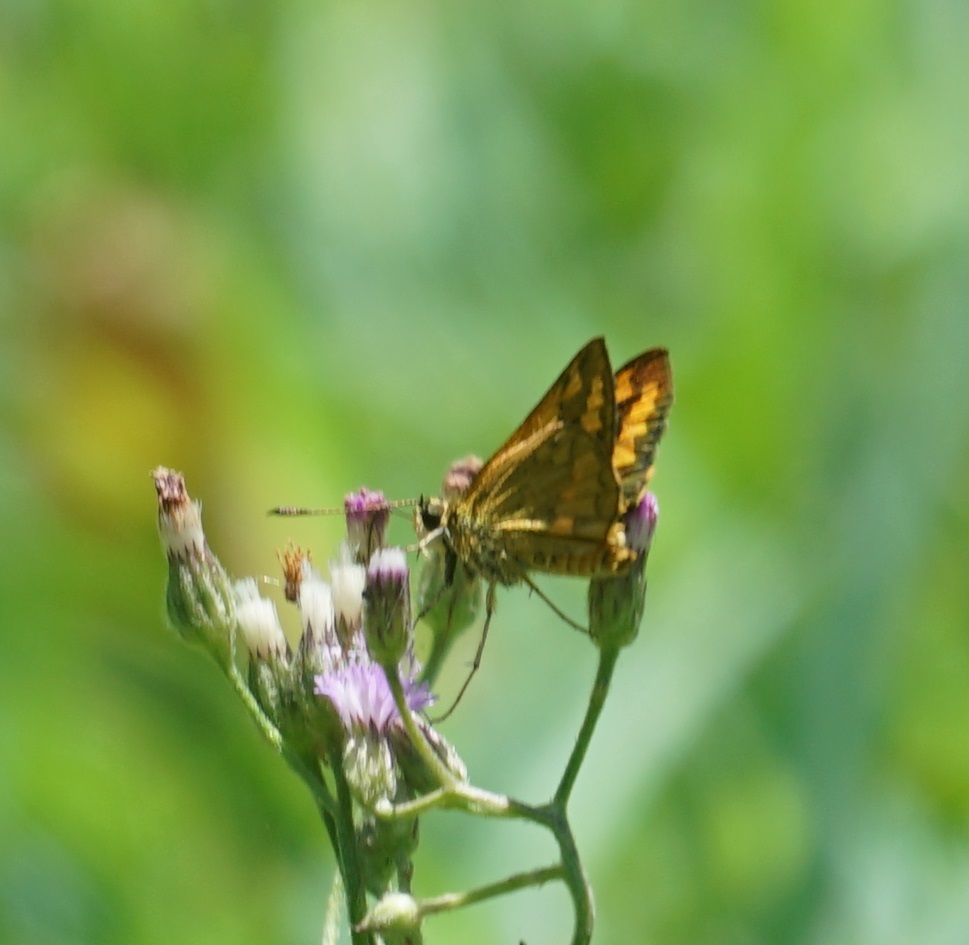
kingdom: Animalia
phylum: Arthropoda
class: Insecta
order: Lepidoptera
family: Hesperiidae
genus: Suniana
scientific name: Suniana sunias
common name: Wide-brand grass-dart
